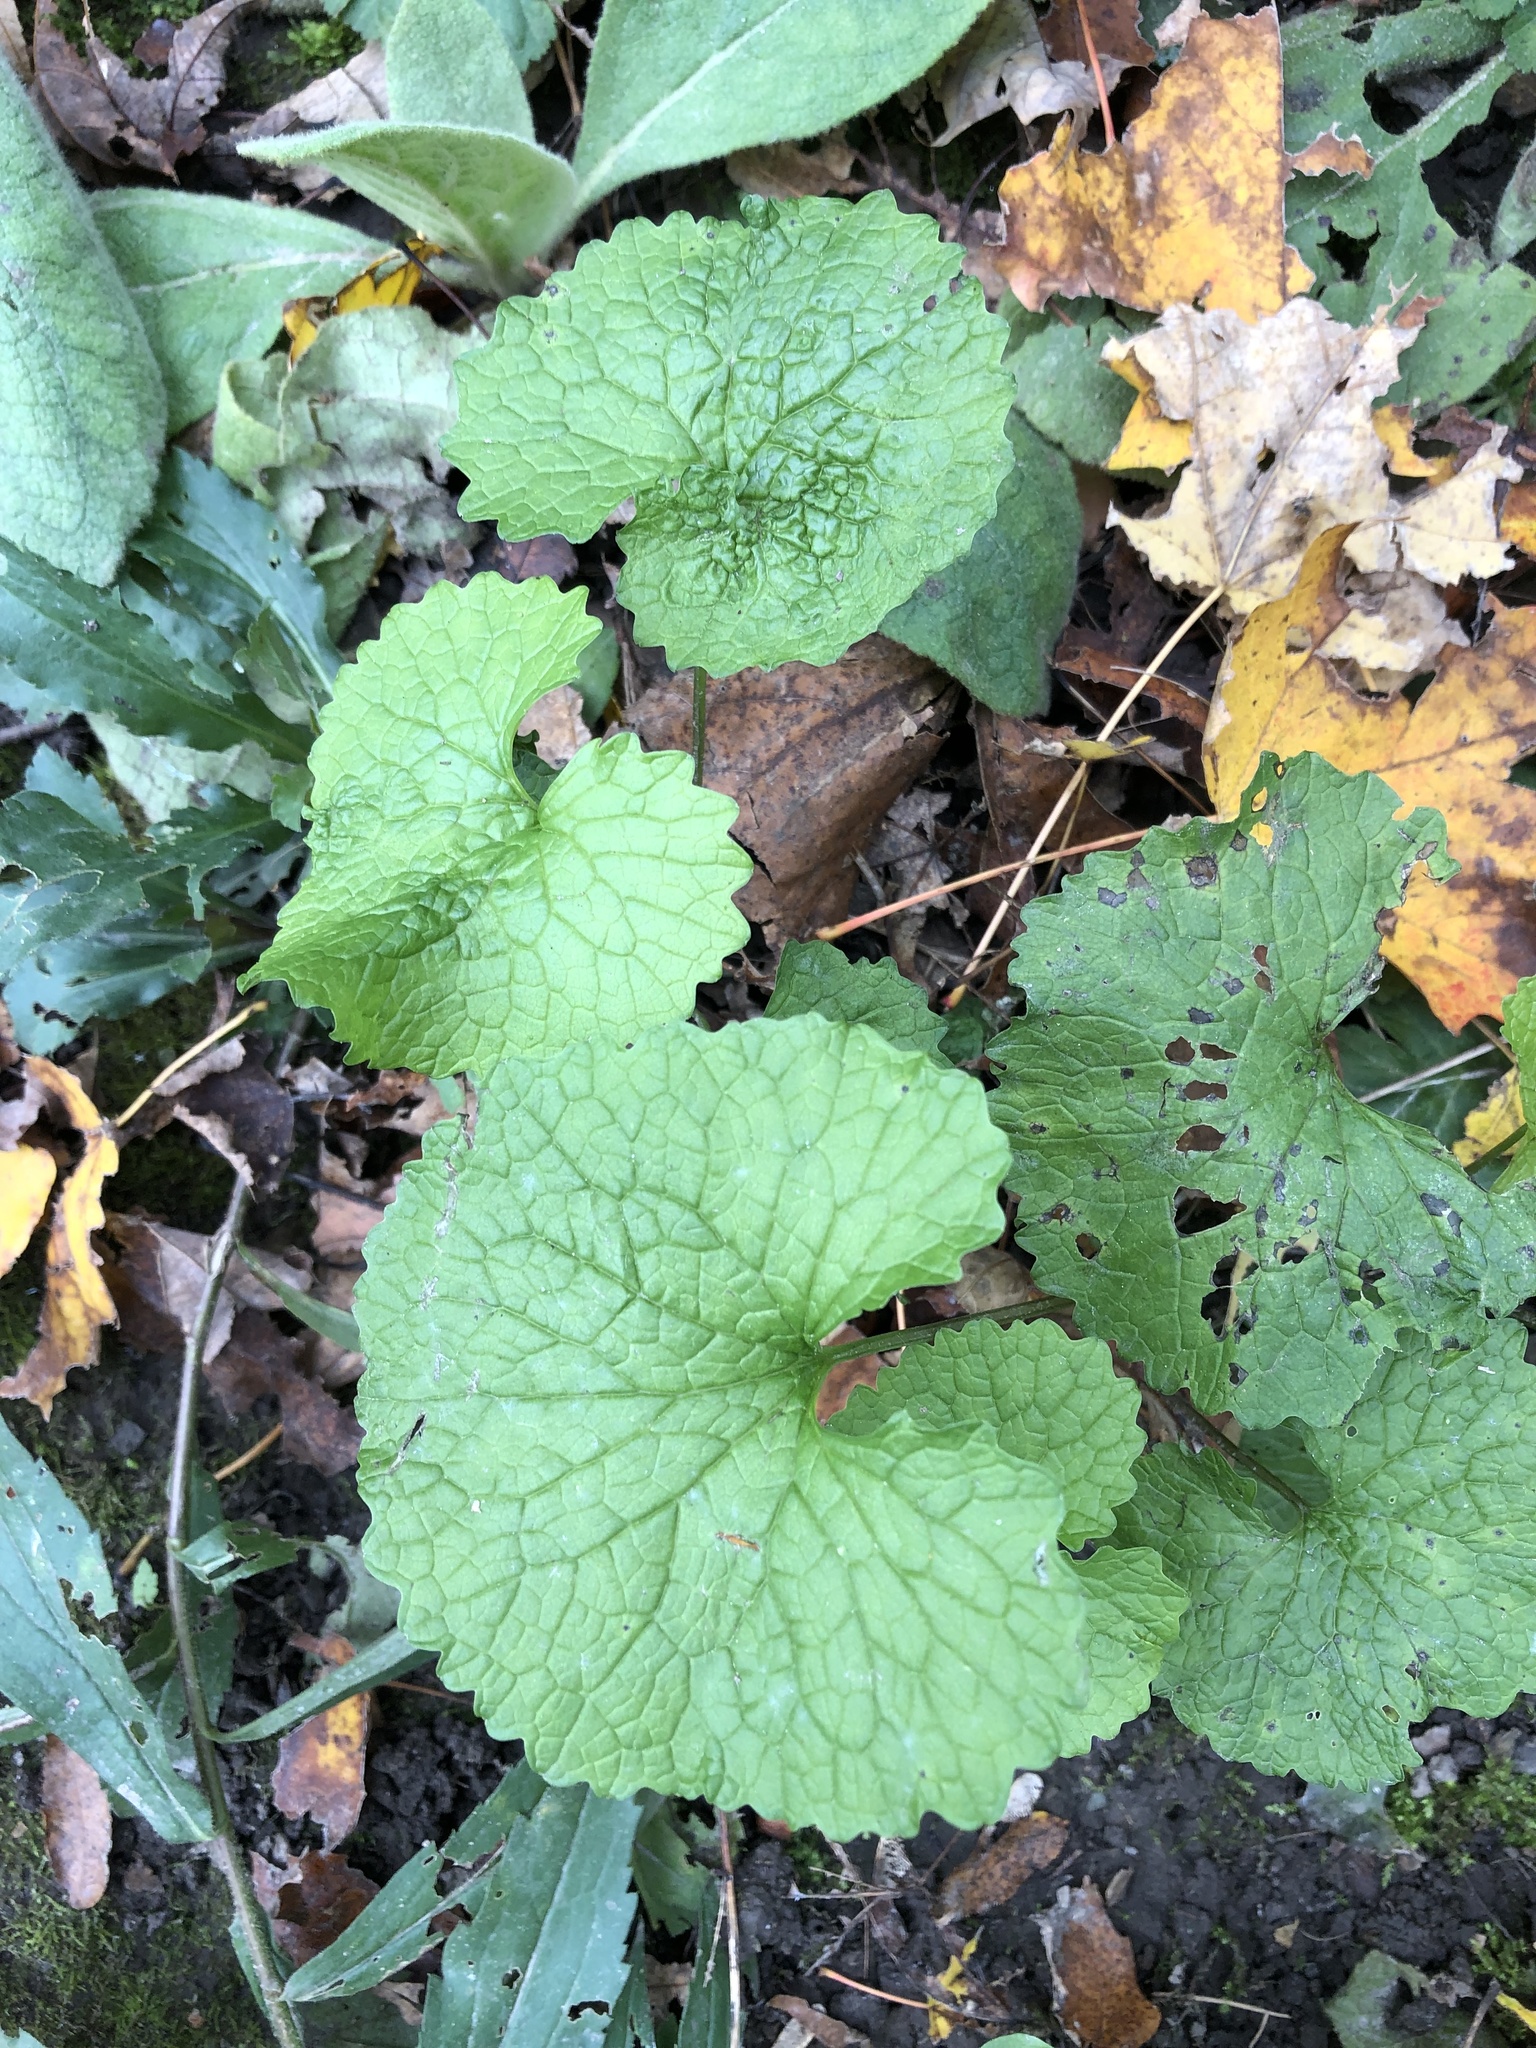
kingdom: Plantae
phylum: Tracheophyta
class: Magnoliopsida
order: Brassicales
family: Brassicaceae
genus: Alliaria
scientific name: Alliaria petiolata
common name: Garlic mustard
